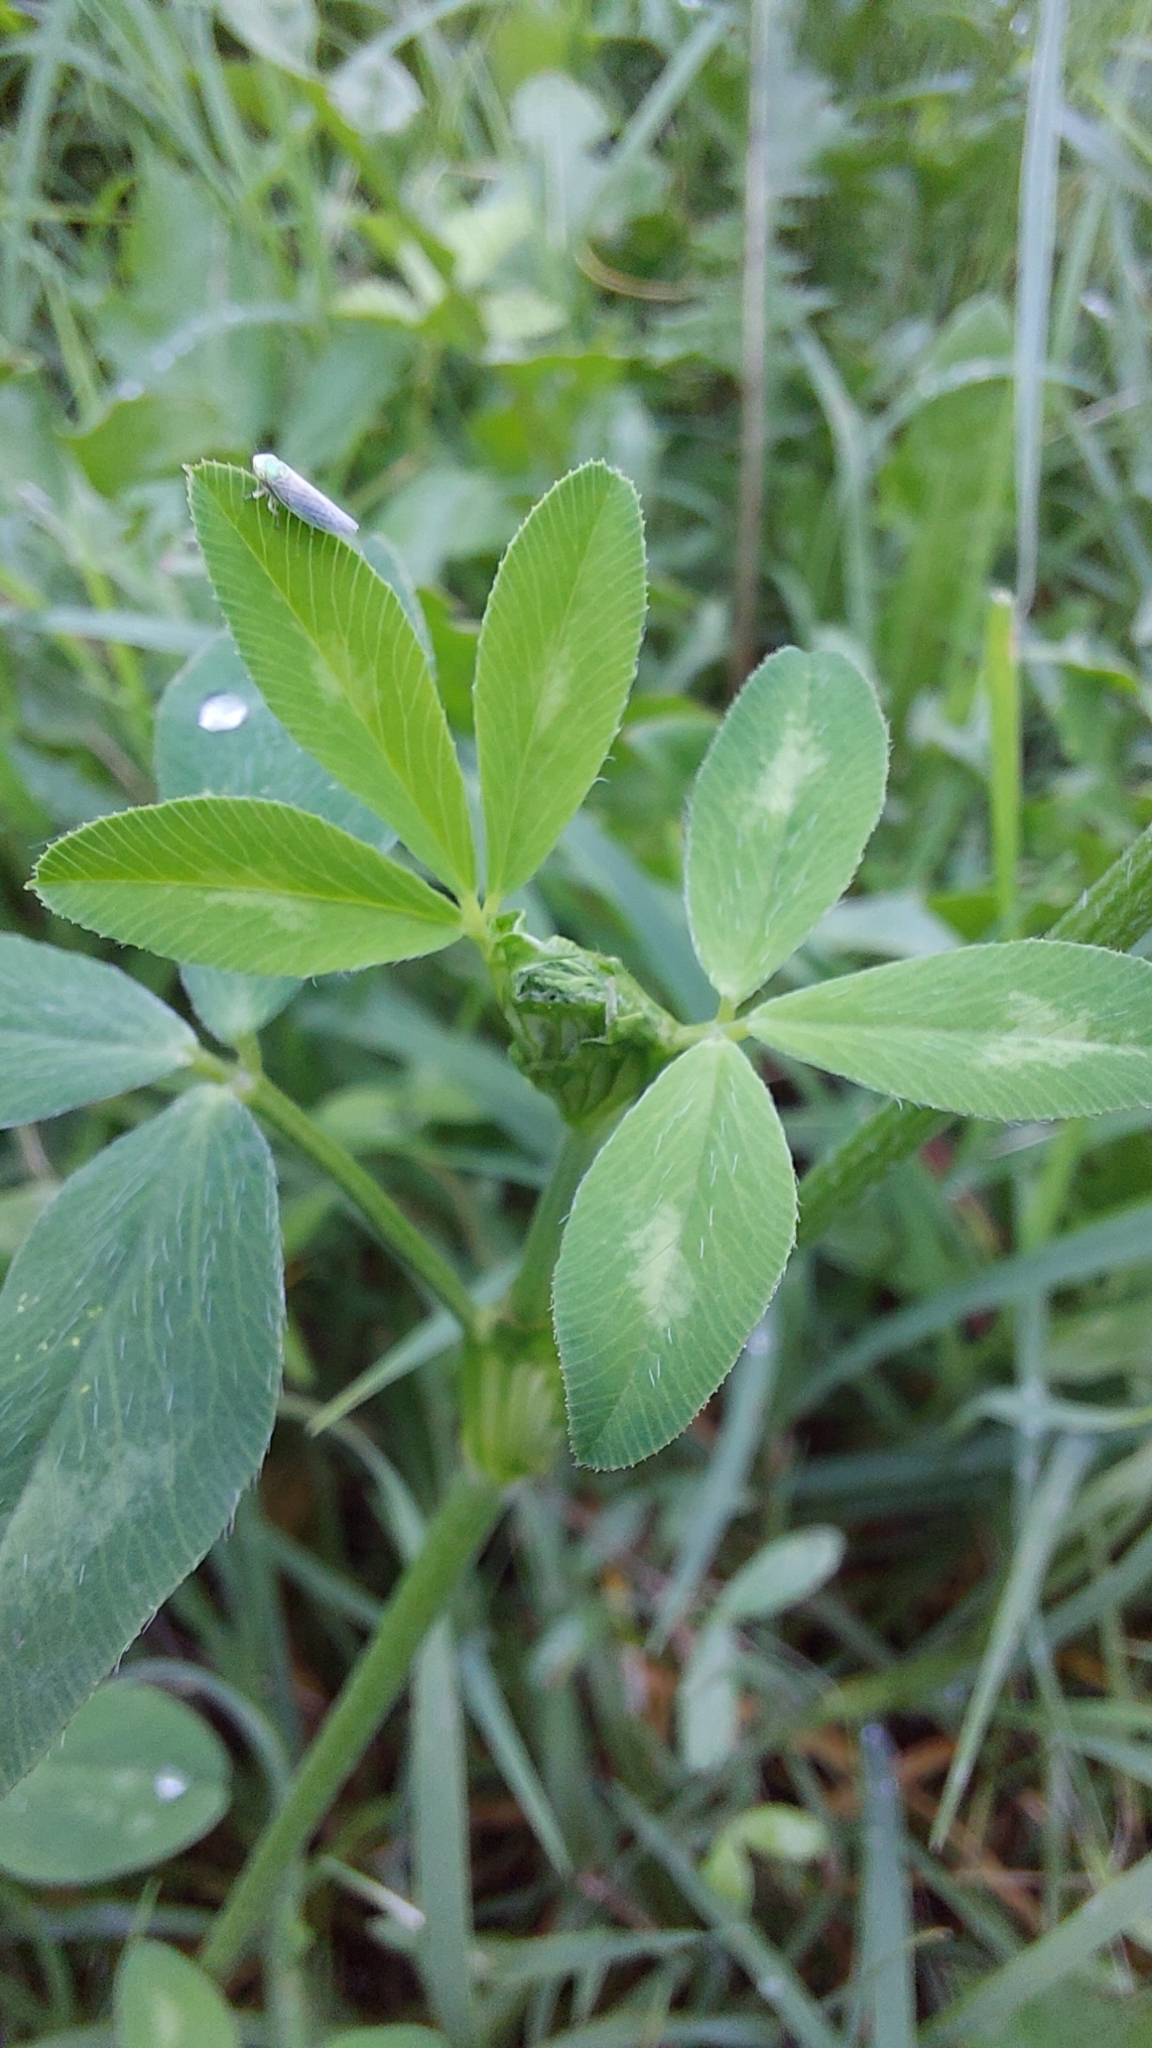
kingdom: Plantae
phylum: Tracheophyta
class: Magnoliopsida
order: Fabales
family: Fabaceae
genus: Trifolium
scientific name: Trifolium pratense
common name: Red clover
